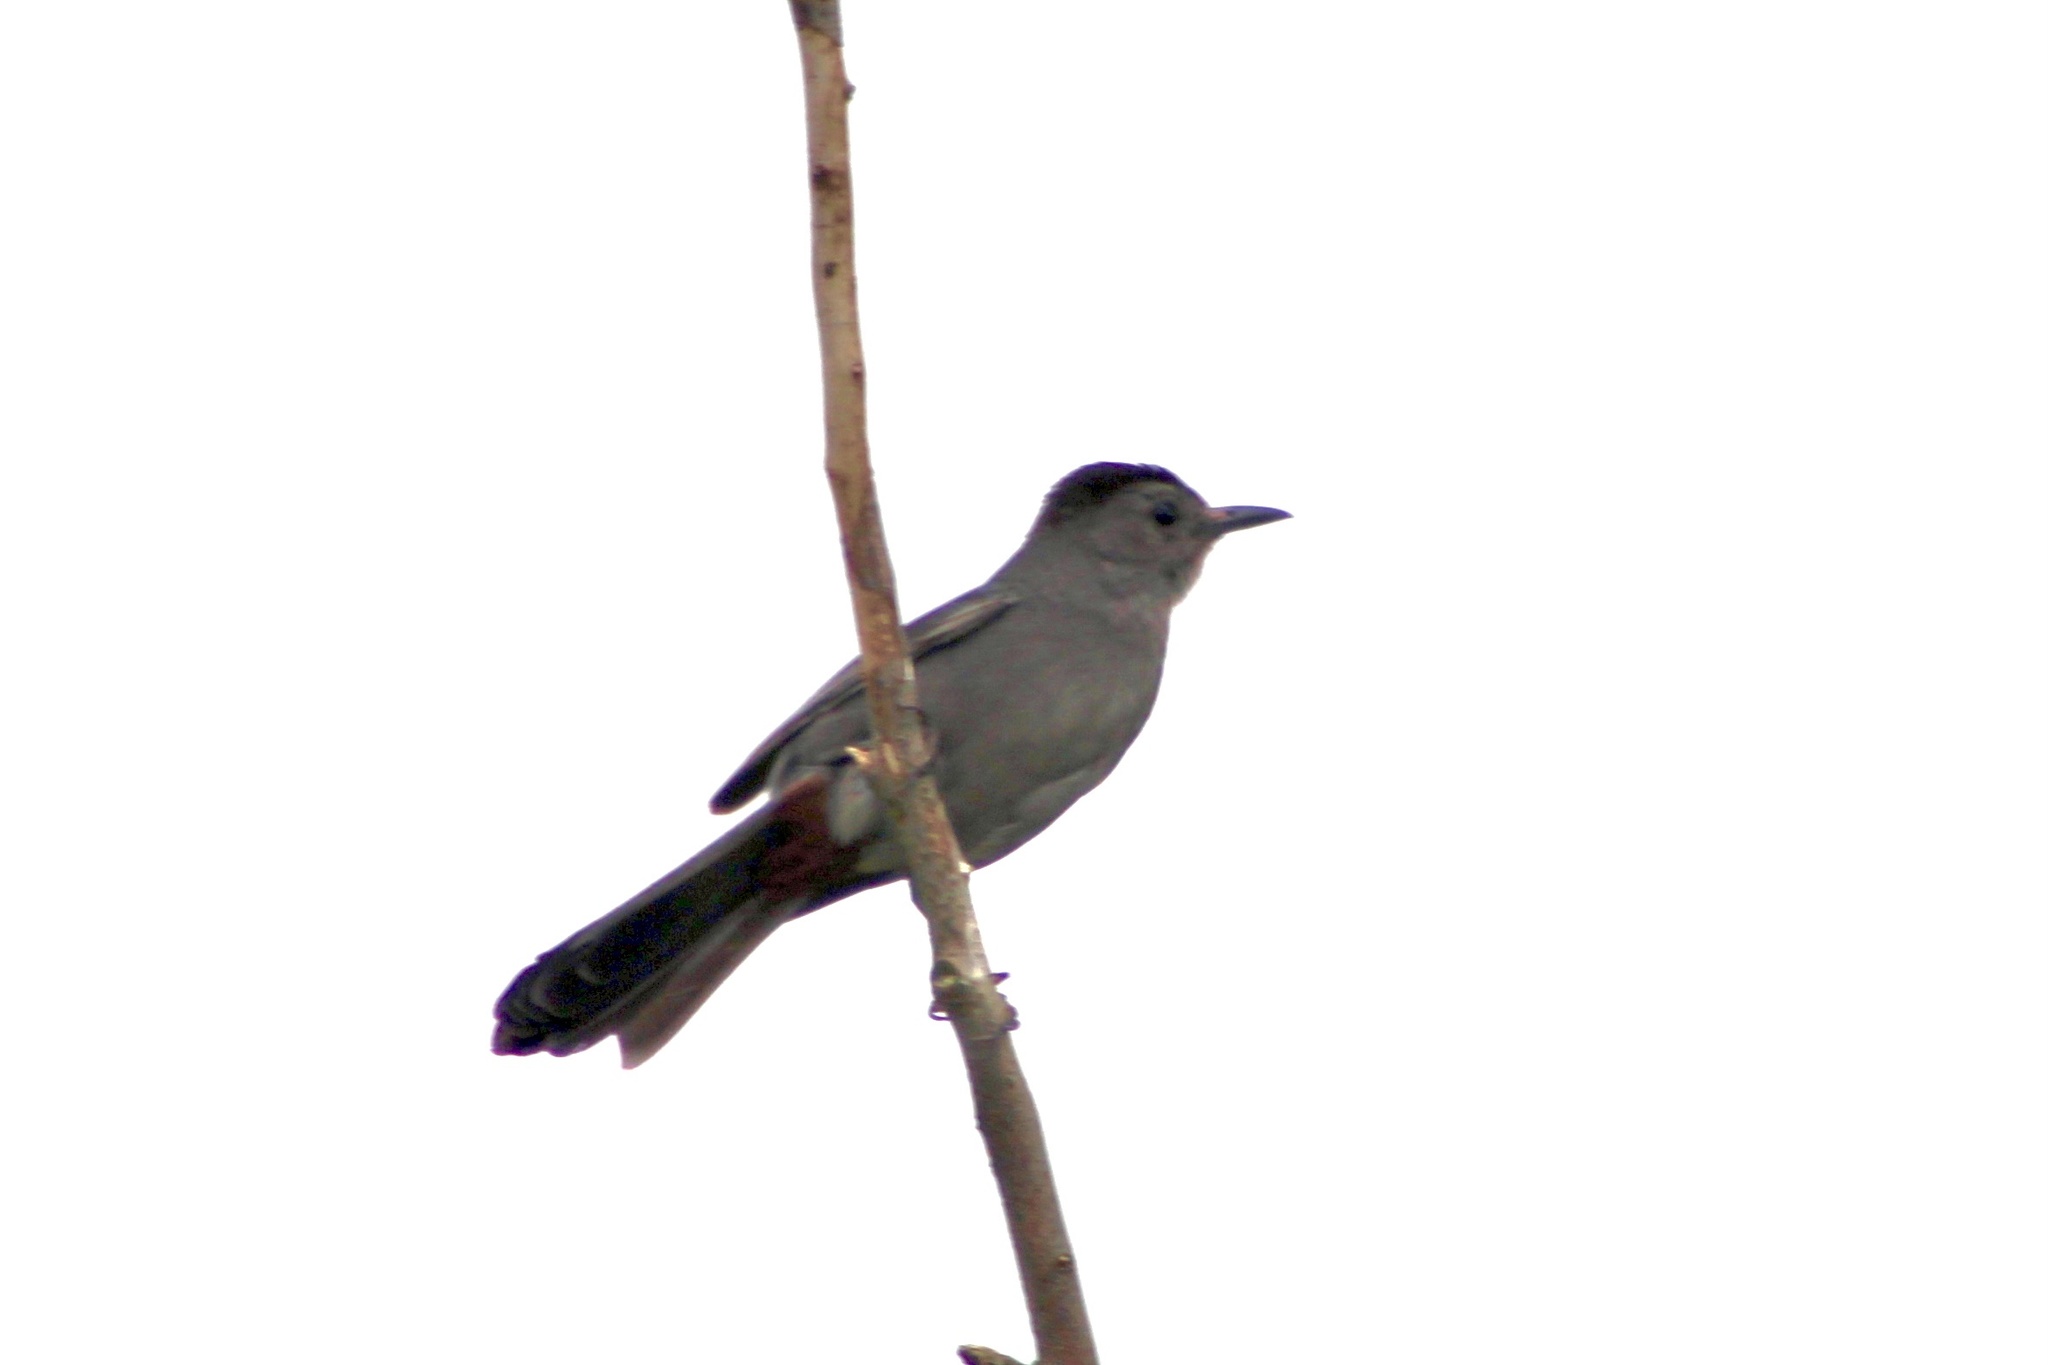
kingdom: Animalia
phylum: Chordata
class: Aves
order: Passeriformes
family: Mimidae
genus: Dumetella
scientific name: Dumetella carolinensis
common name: Gray catbird
